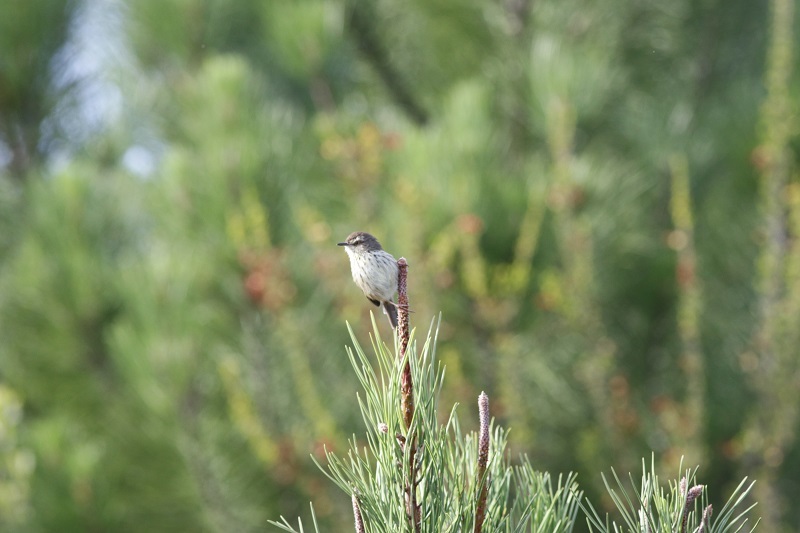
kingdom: Animalia
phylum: Chordata
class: Aves
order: Passeriformes
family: Cisticolidae
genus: Prinia
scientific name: Prinia maculosa
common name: Karoo prinia
